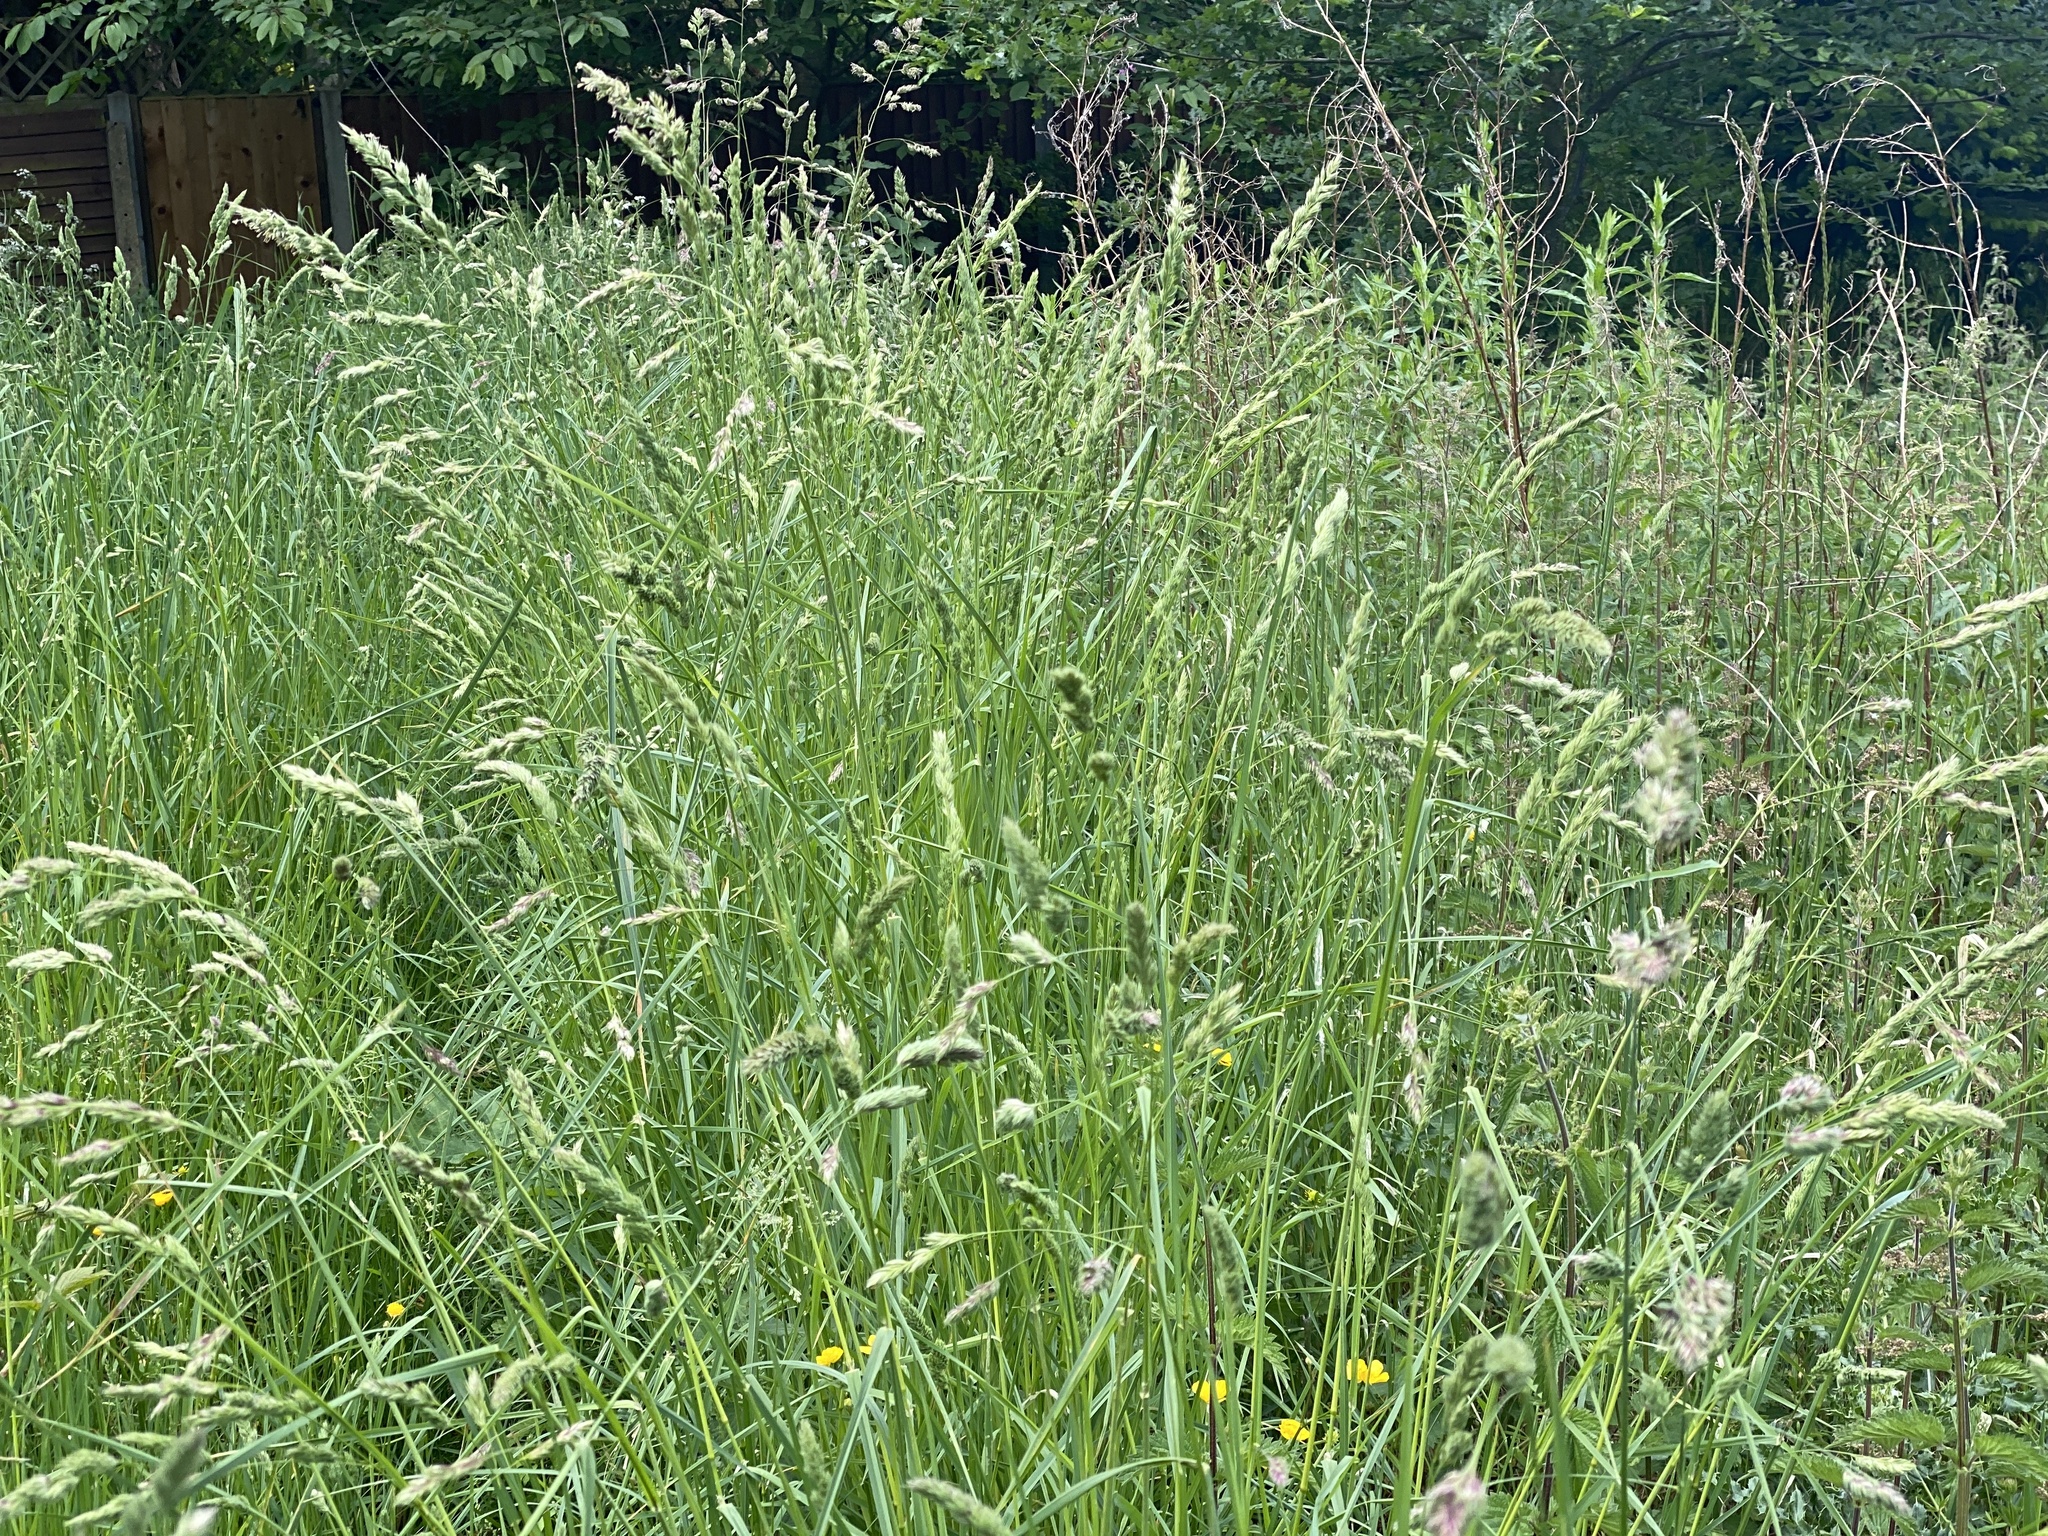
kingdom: Plantae
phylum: Tracheophyta
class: Liliopsida
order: Poales
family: Poaceae
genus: Dactylis
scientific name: Dactylis glomerata
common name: Orchardgrass
